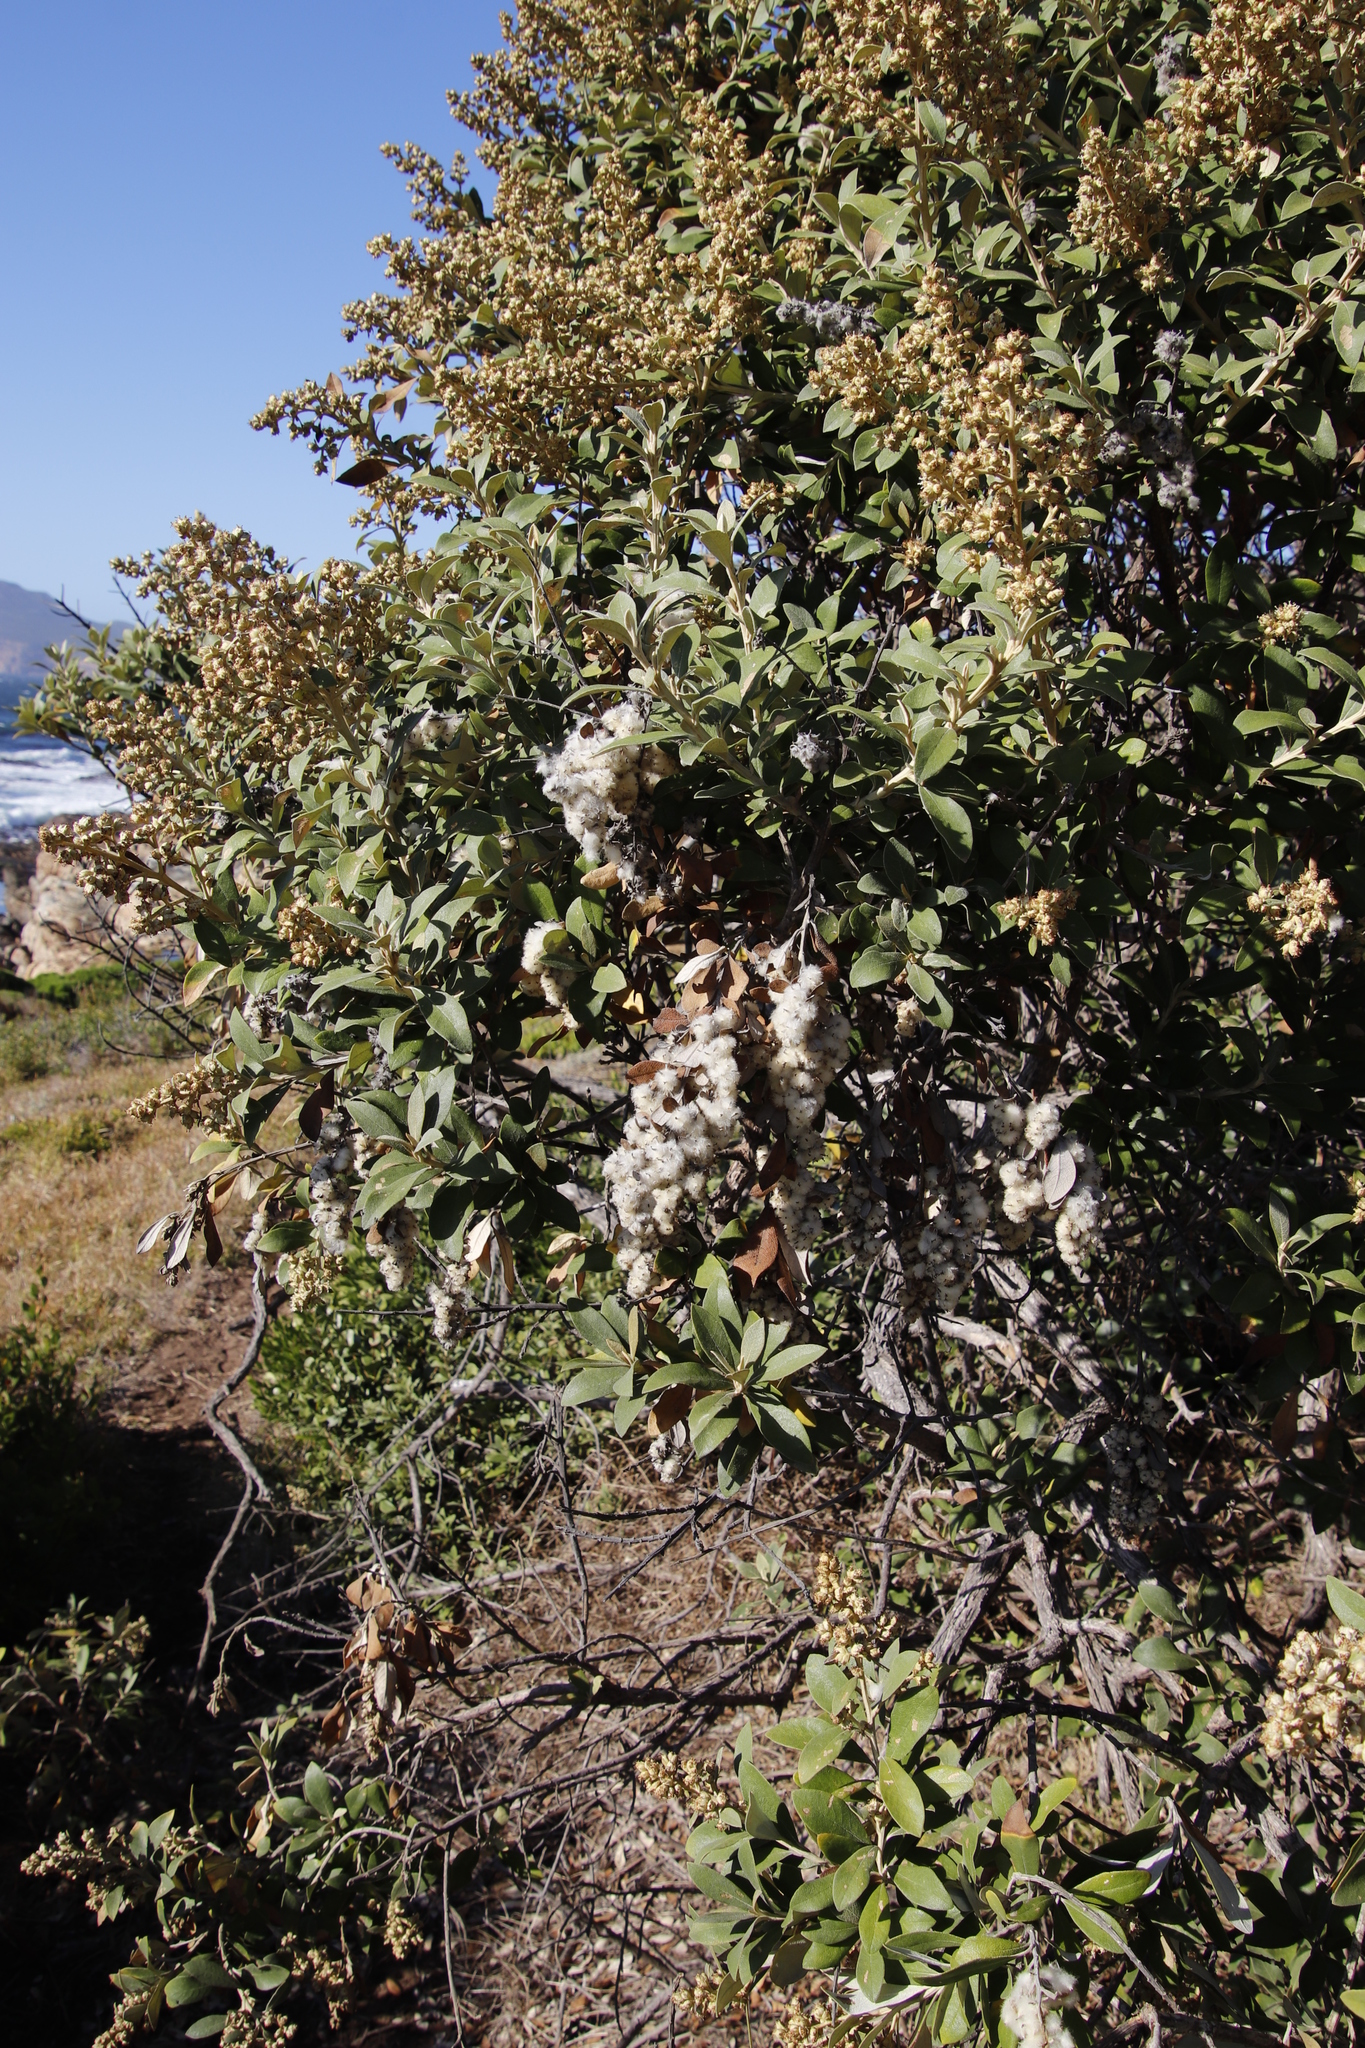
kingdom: Plantae
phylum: Tracheophyta
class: Magnoliopsida
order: Asterales
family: Asteraceae
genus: Tarchonanthus
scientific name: Tarchonanthus littoralis
